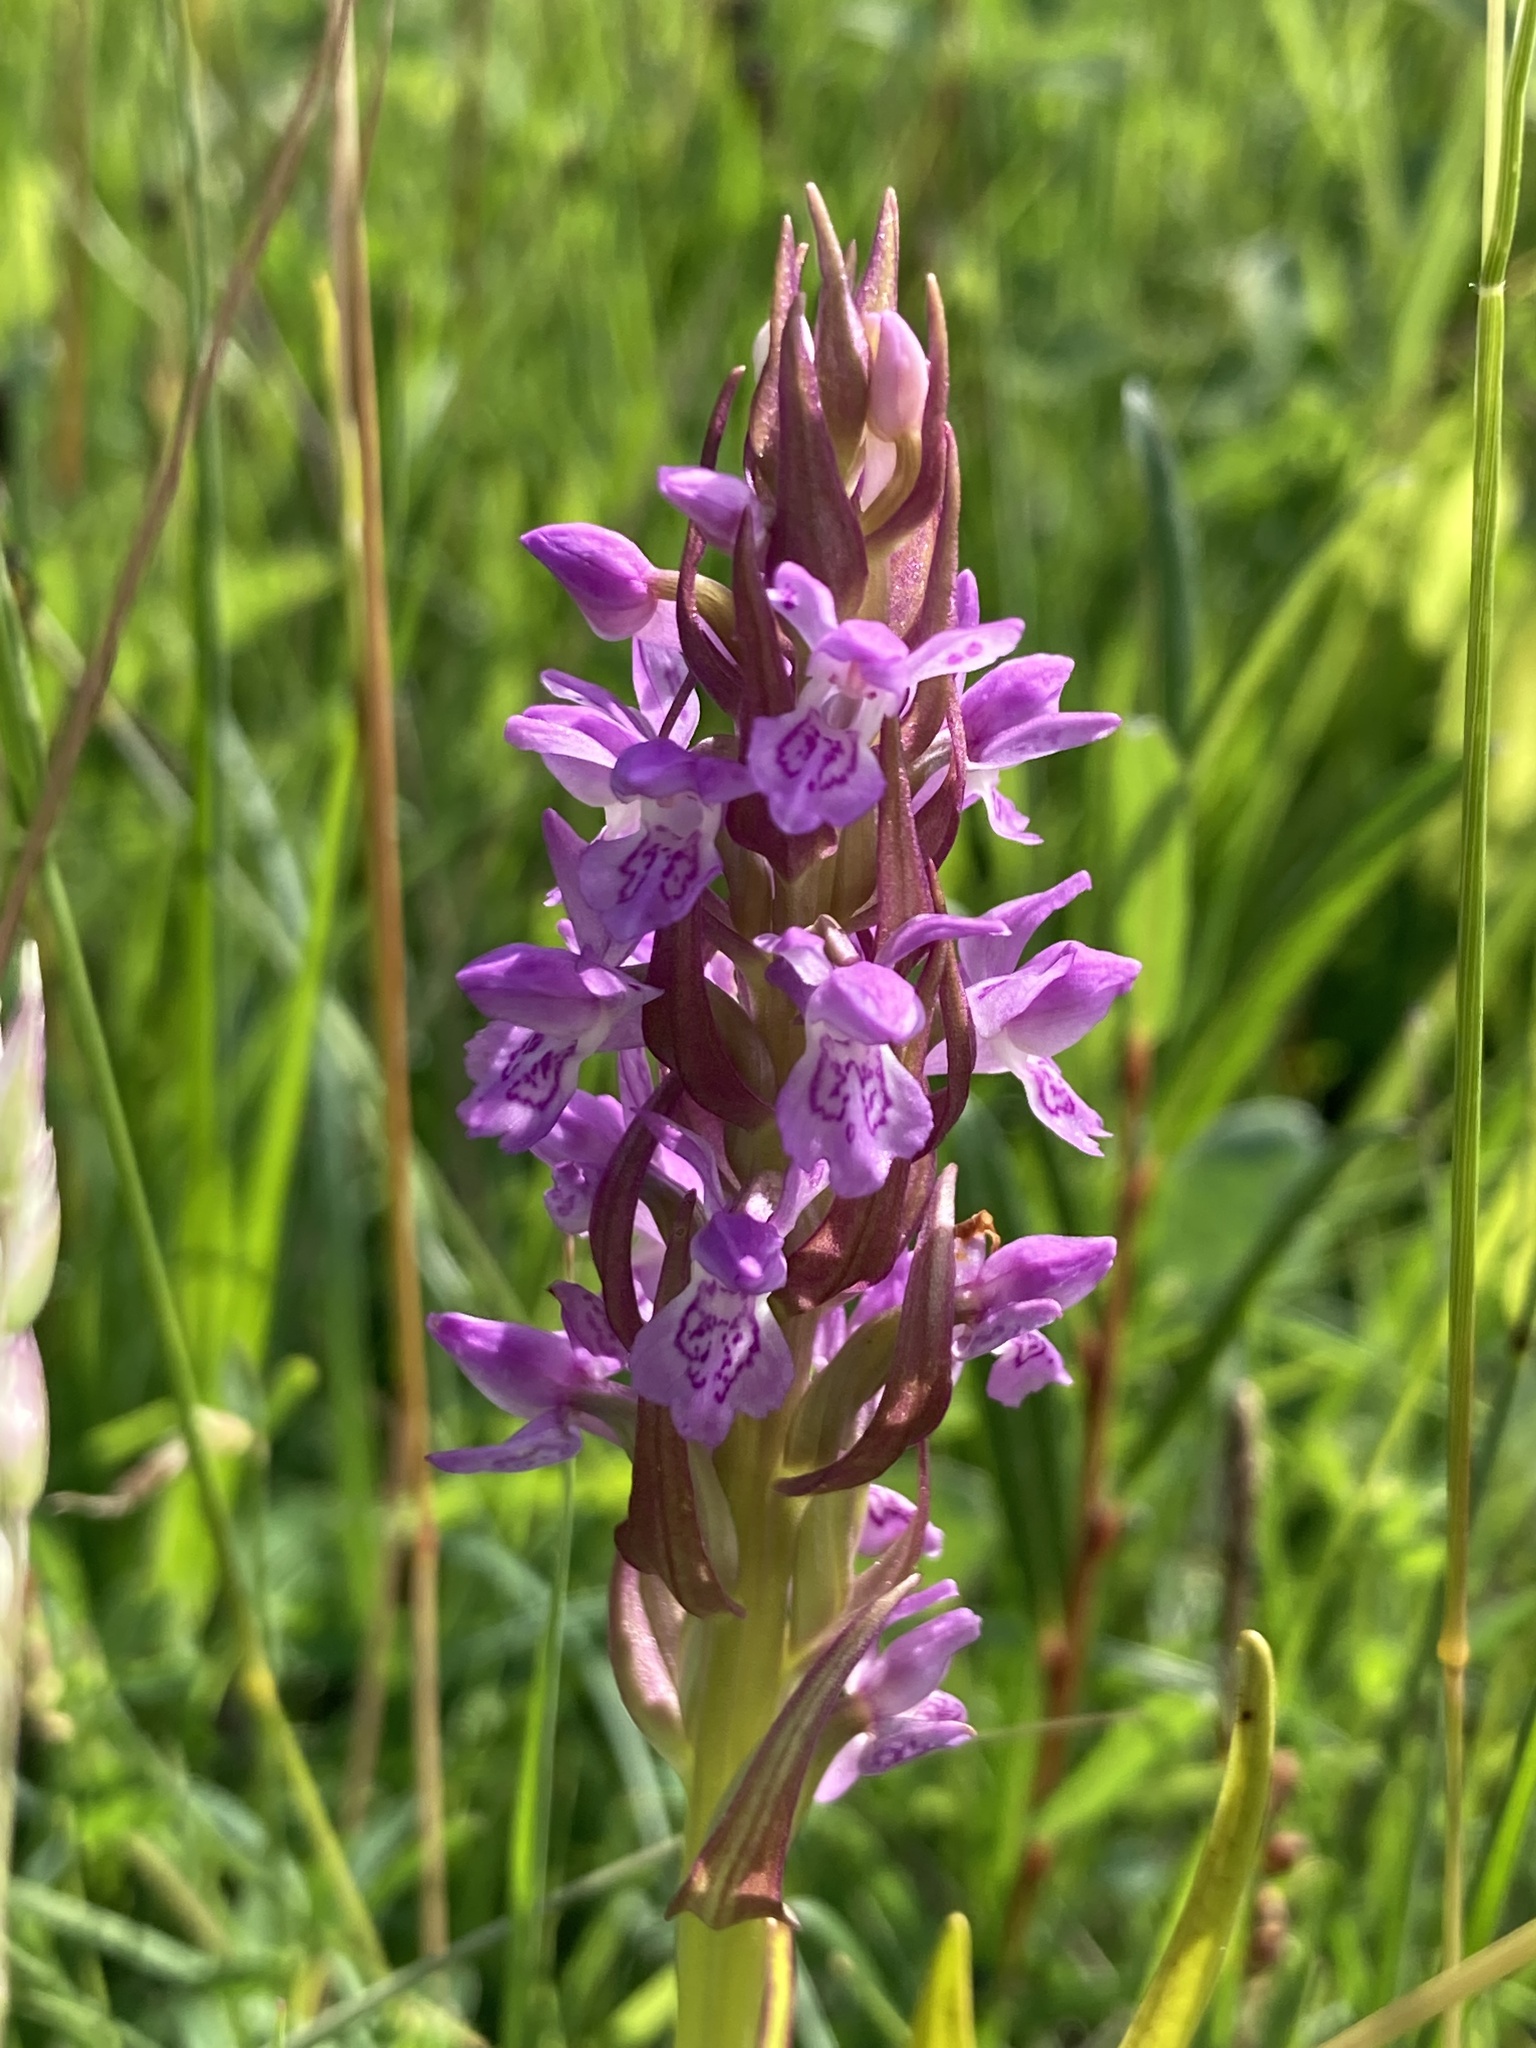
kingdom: Plantae
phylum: Tracheophyta
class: Liliopsida
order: Asparagales
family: Orchidaceae
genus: Dactylorhiza
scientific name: Dactylorhiza incarnata
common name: Early marsh-orchid
